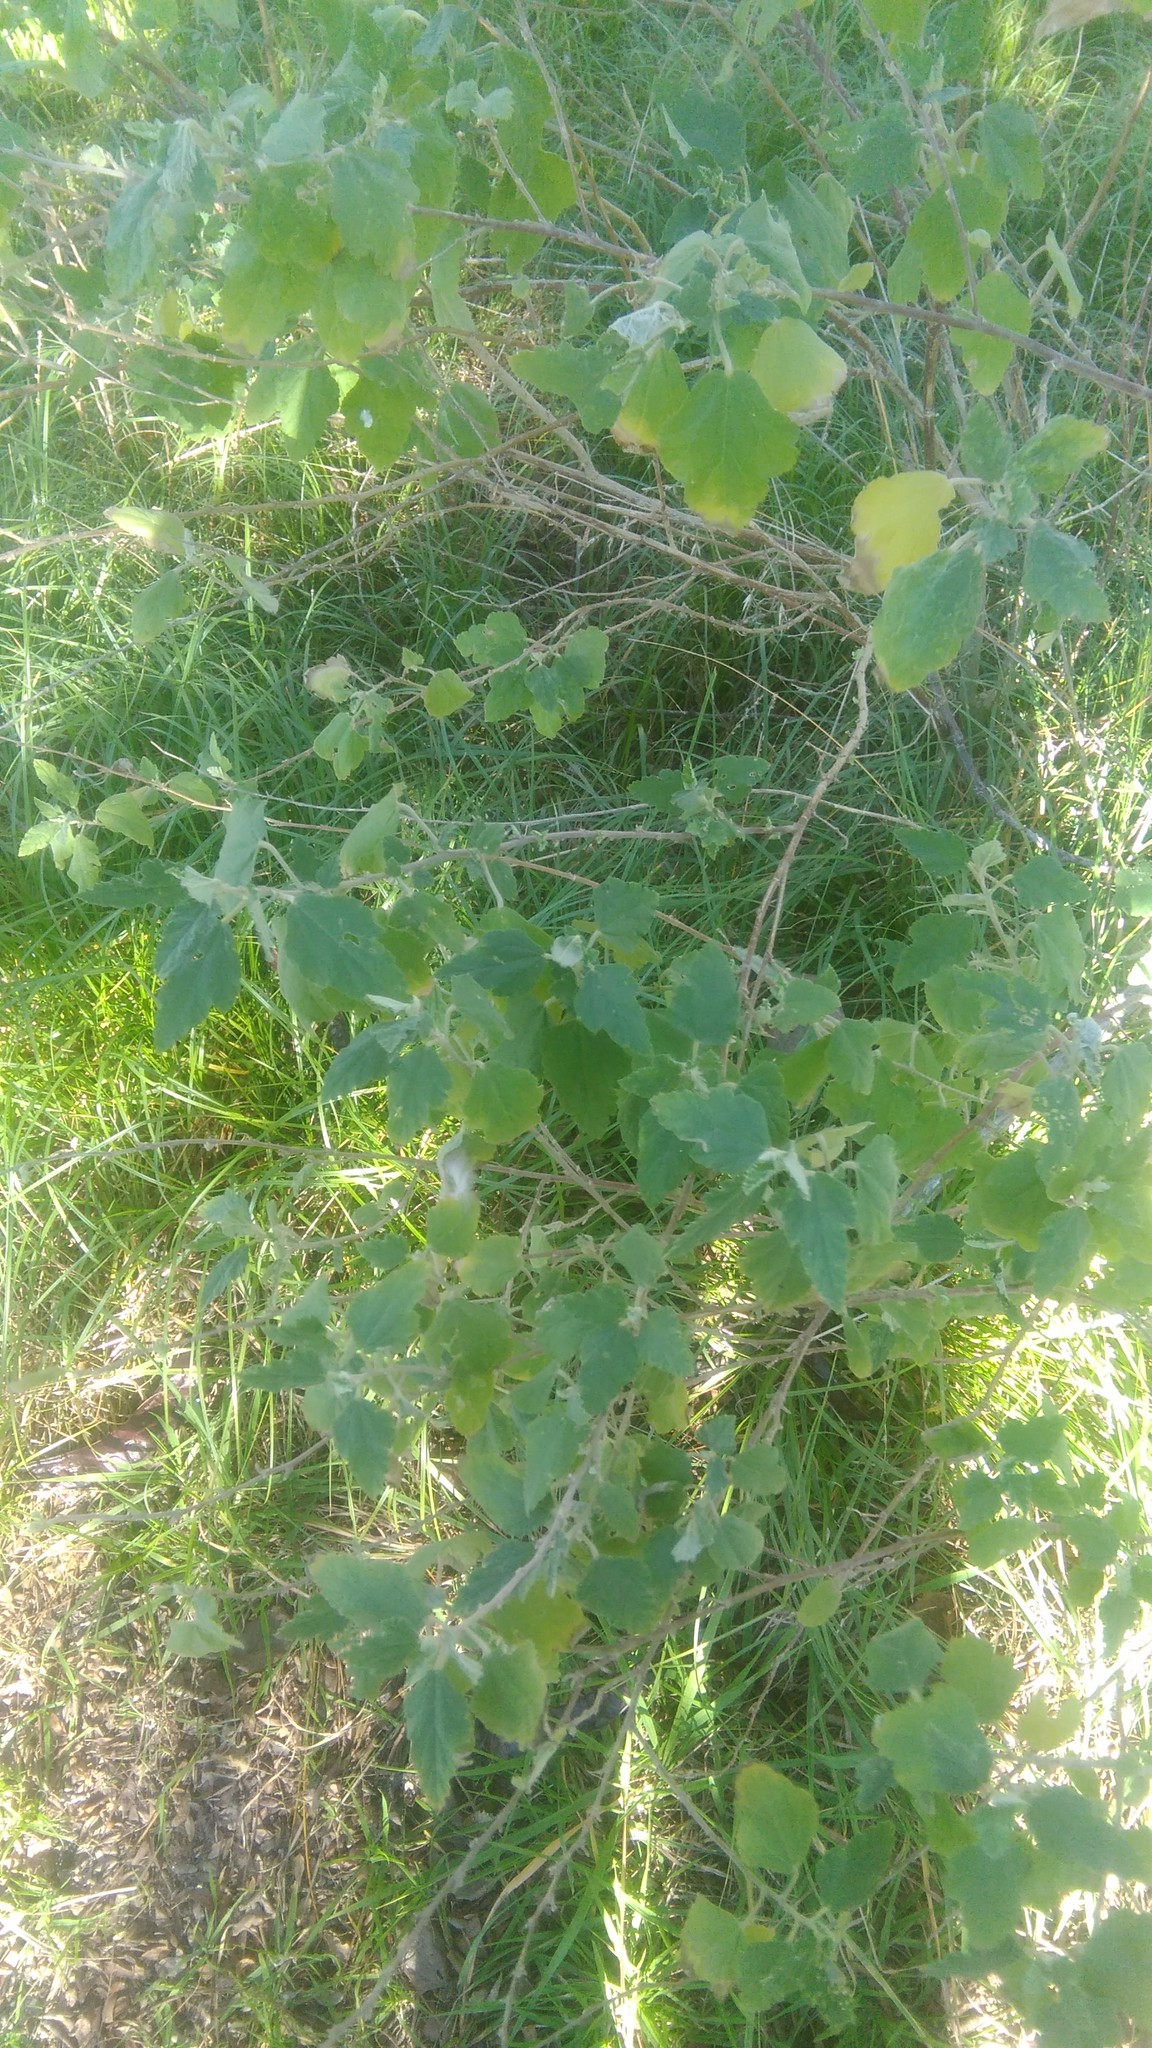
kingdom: Plantae
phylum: Tracheophyta
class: Magnoliopsida
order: Malvales
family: Malvaceae
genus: Sphaeralcea
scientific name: Sphaeralcea bonariensis
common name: Latin globemallow
